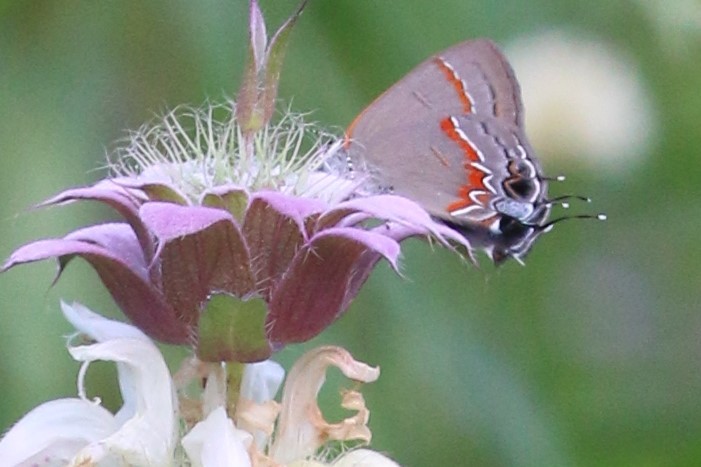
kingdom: Animalia
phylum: Arthropoda
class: Insecta
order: Lepidoptera
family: Lycaenidae
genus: Calycopis
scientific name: Calycopis cecrops
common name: Red-banded hairstreak
